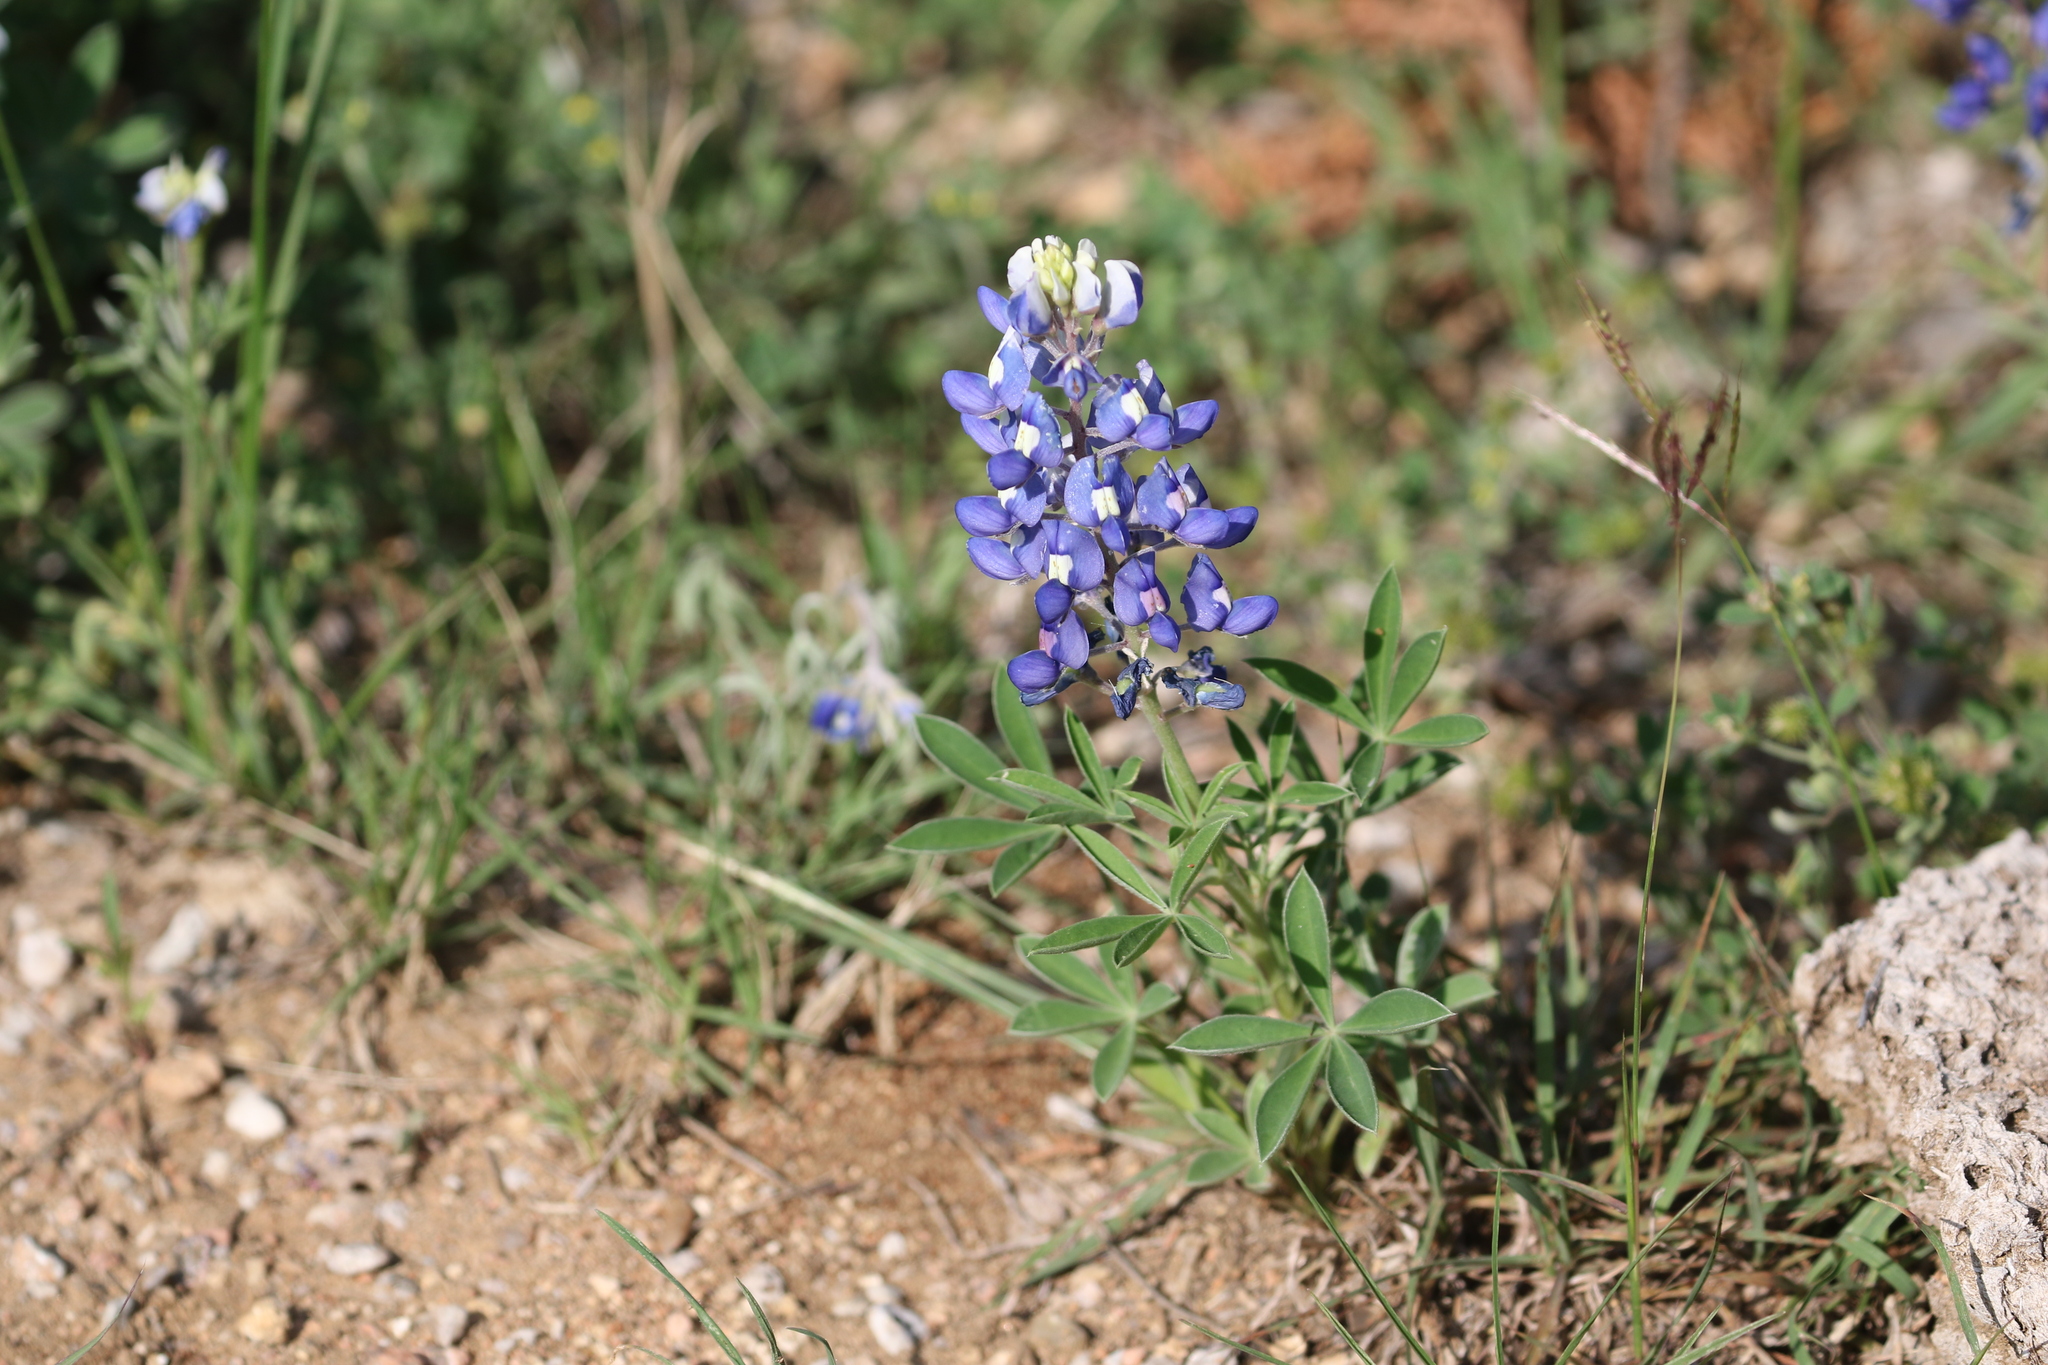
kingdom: Plantae
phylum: Tracheophyta
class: Magnoliopsida
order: Fabales
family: Fabaceae
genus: Lupinus
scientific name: Lupinus texensis
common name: Texas bluebonnet
